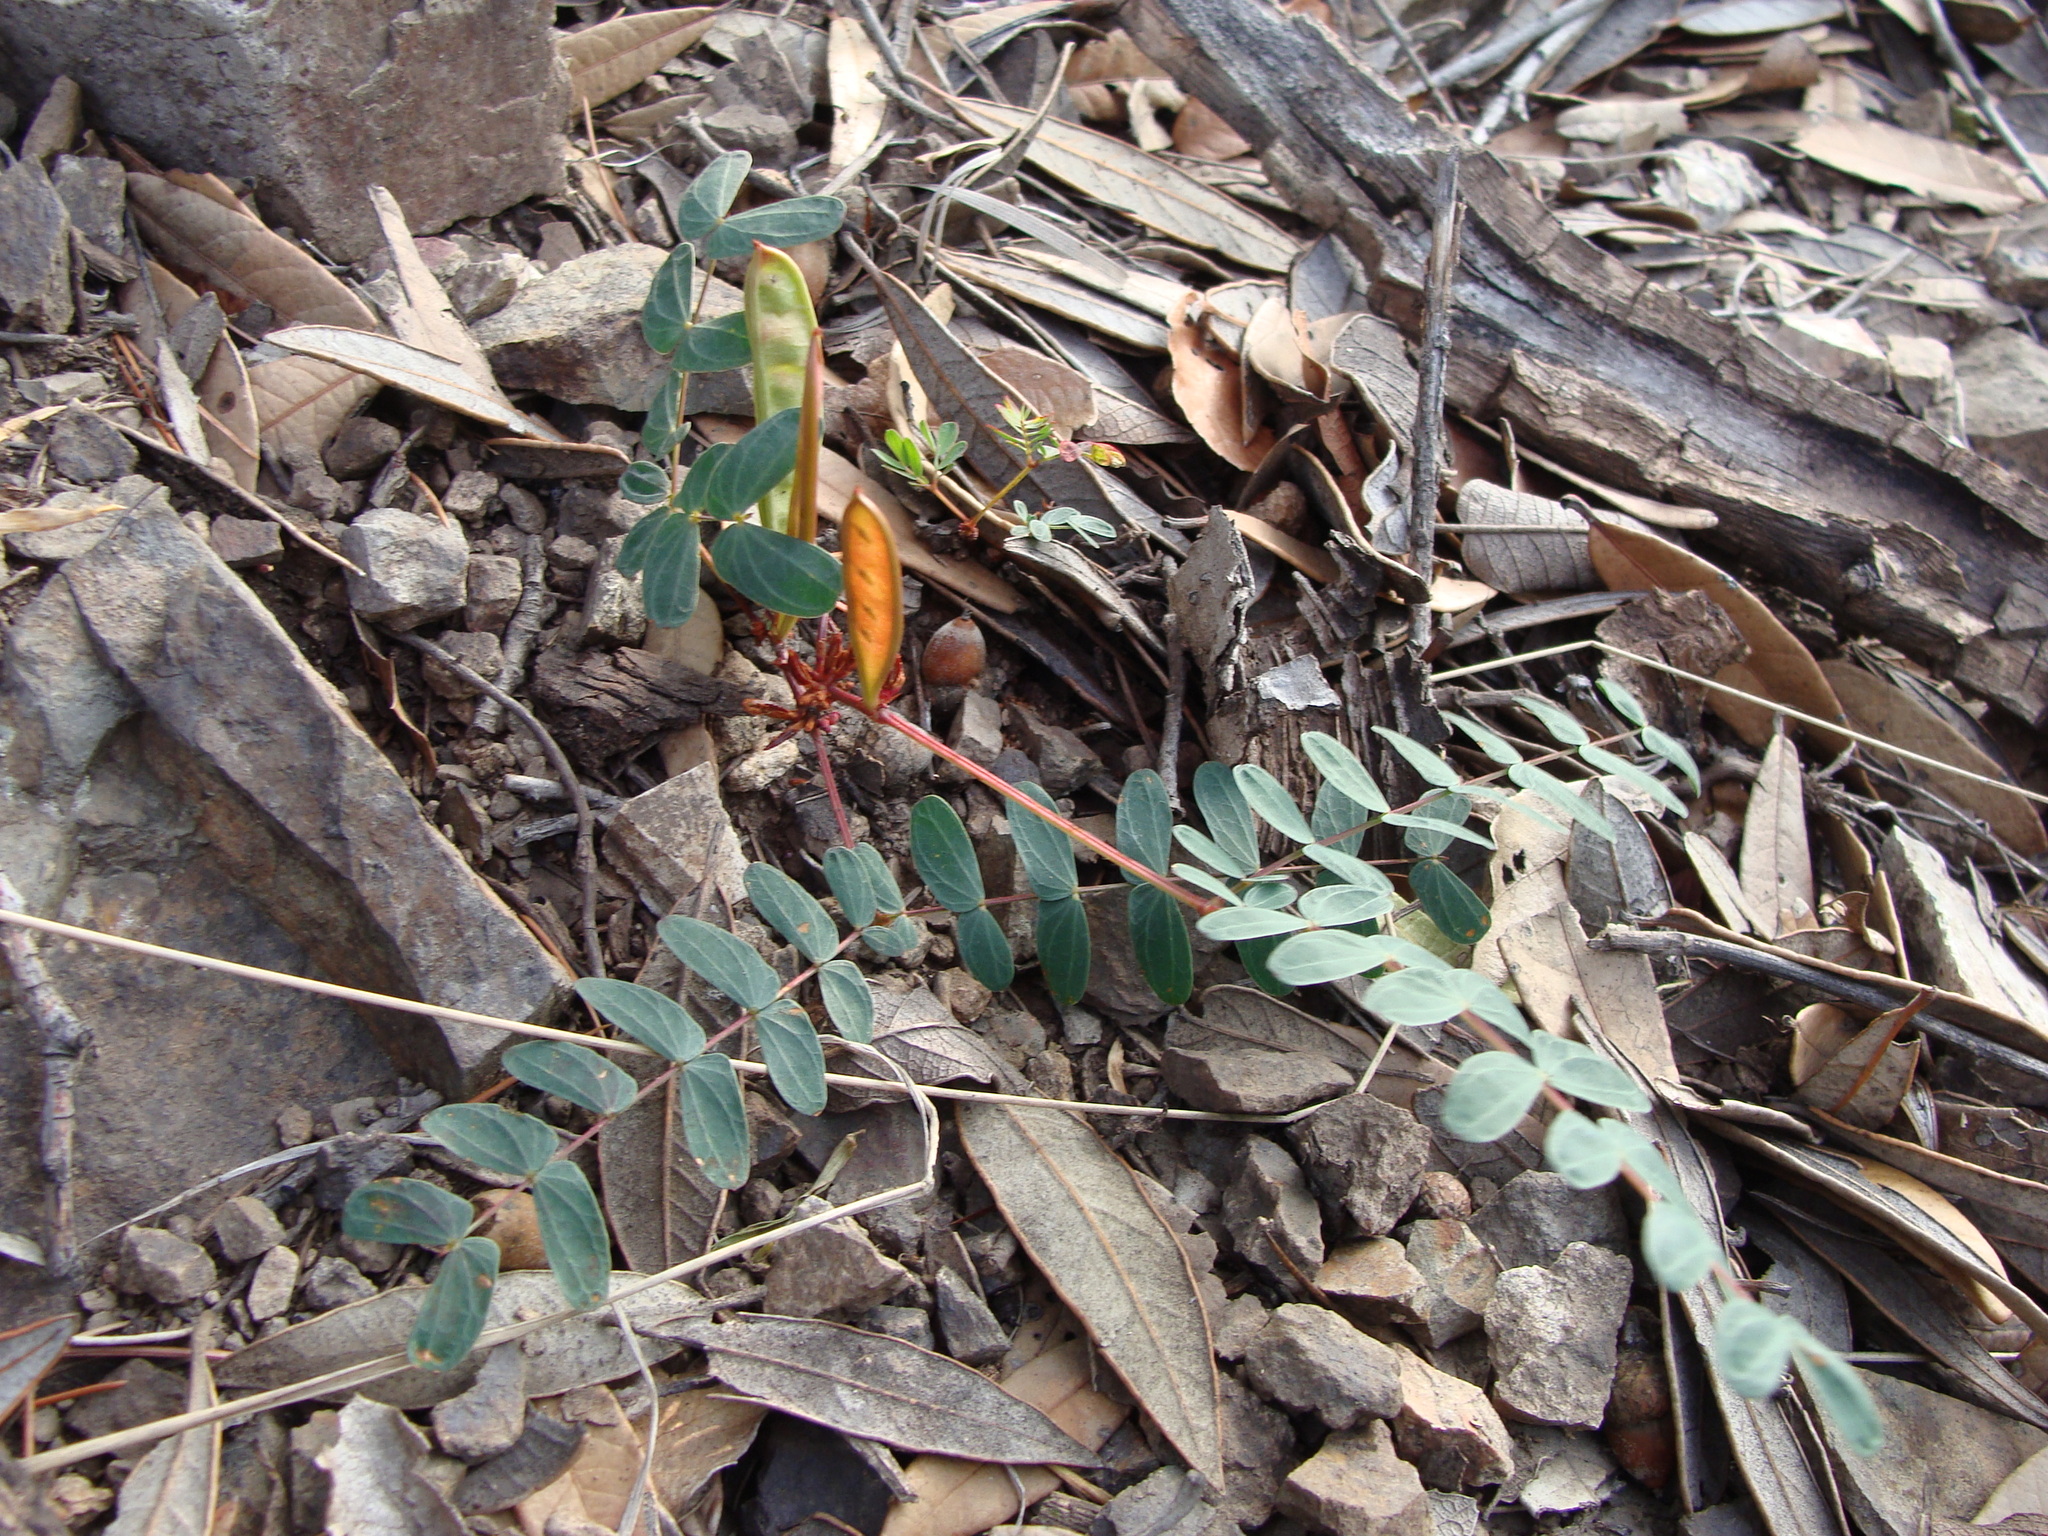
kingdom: Plantae
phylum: Tracheophyta
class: Magnoliopsida
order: Fabales
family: Fabaceae
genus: Calliandra
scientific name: Calliandra humilis
